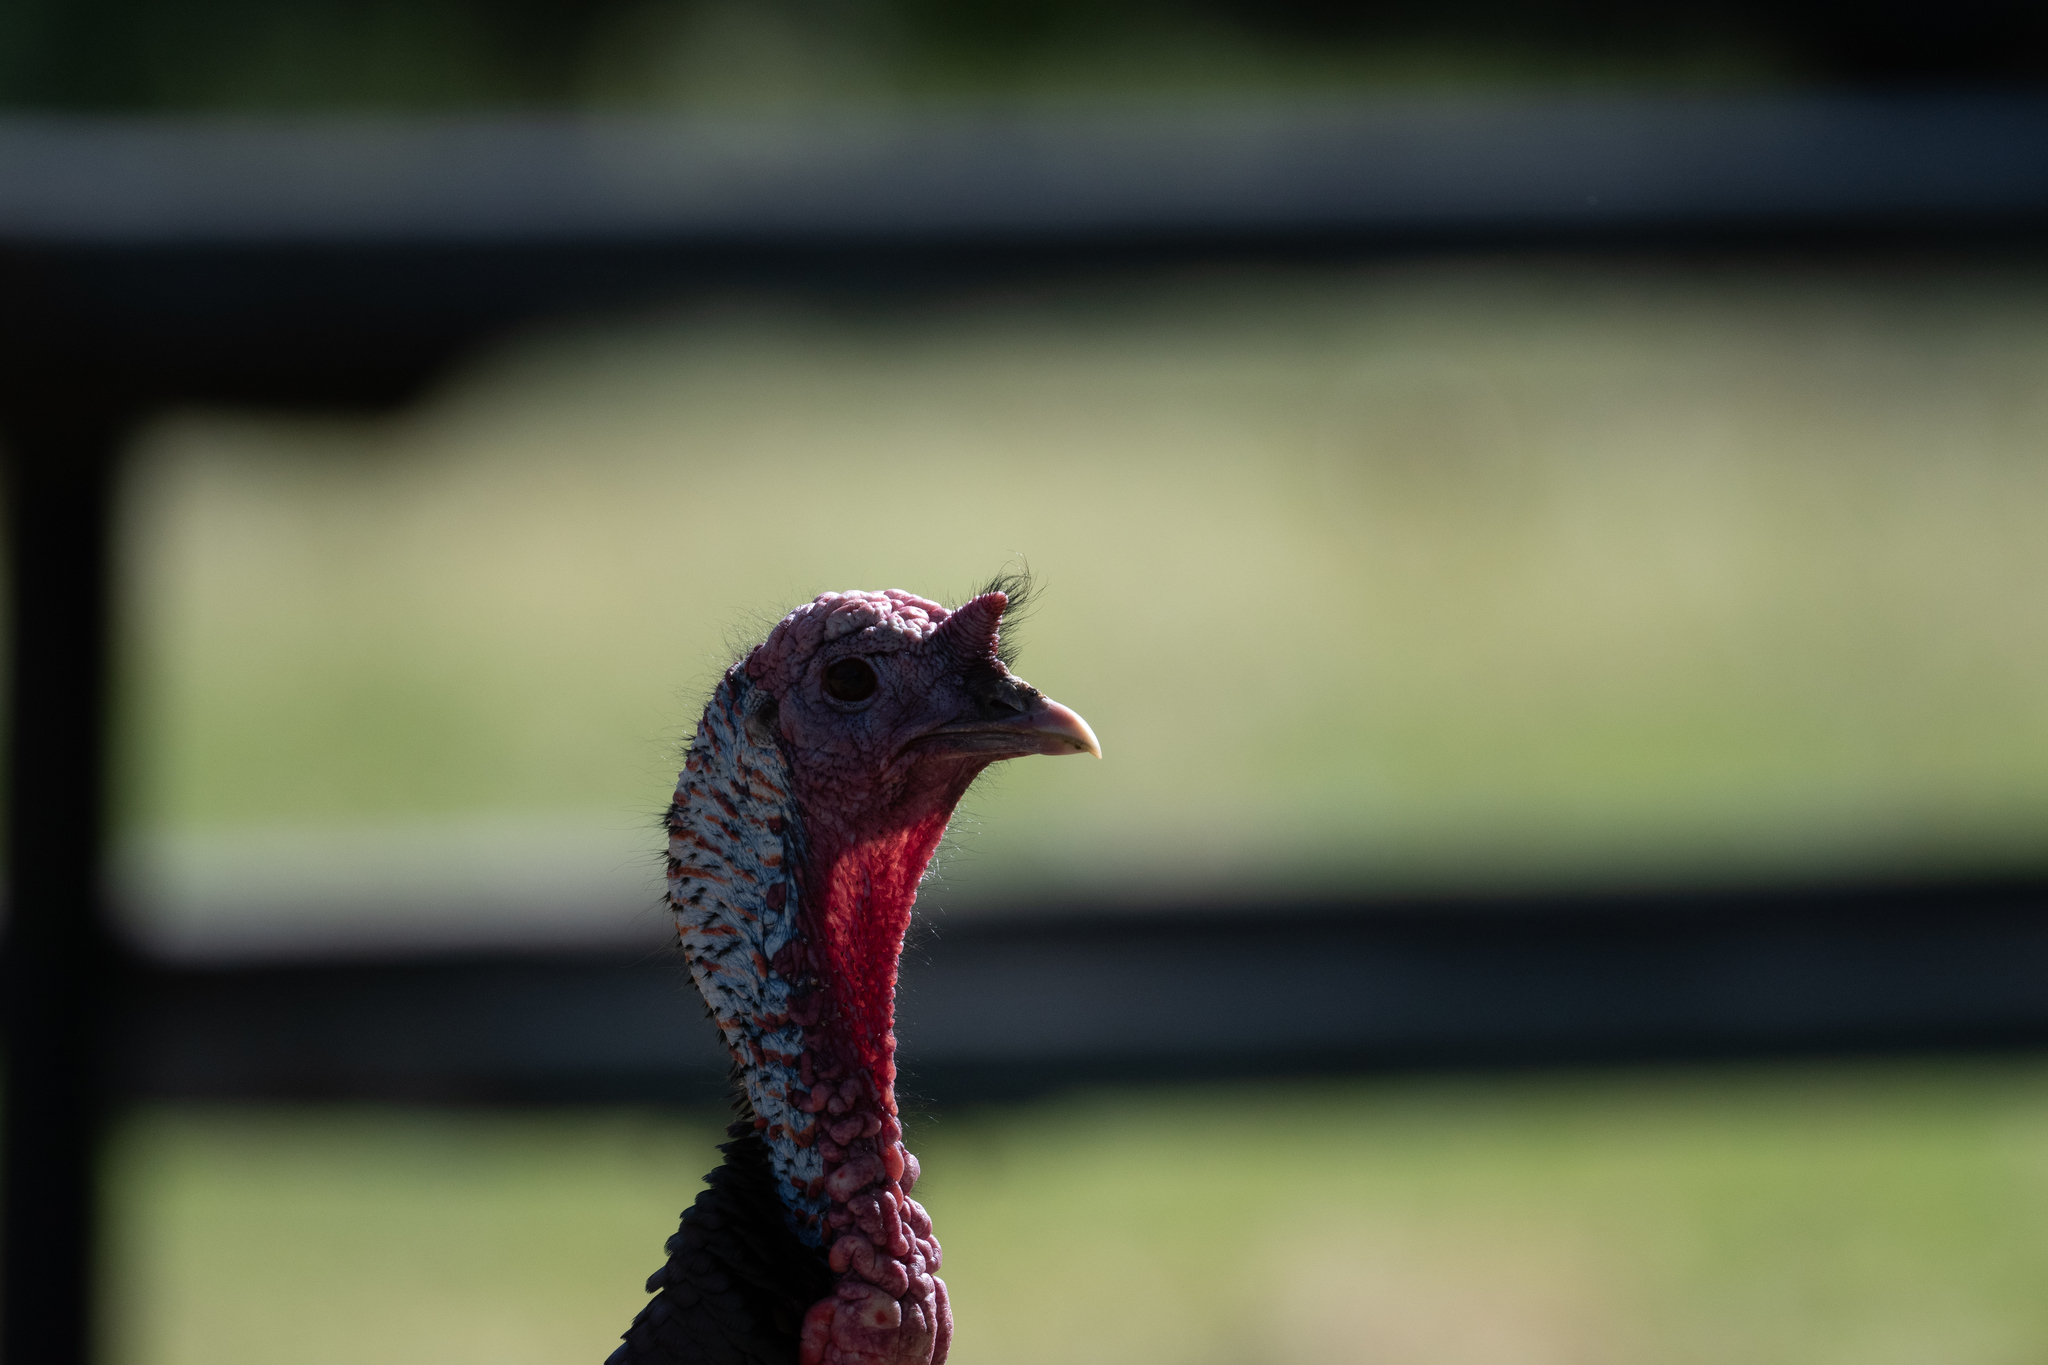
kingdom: Animalia
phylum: Chordata
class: Aves
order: Galliformes
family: Phasianidae
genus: Meleagris
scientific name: Meleagris gallopavo
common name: Wild turkey
